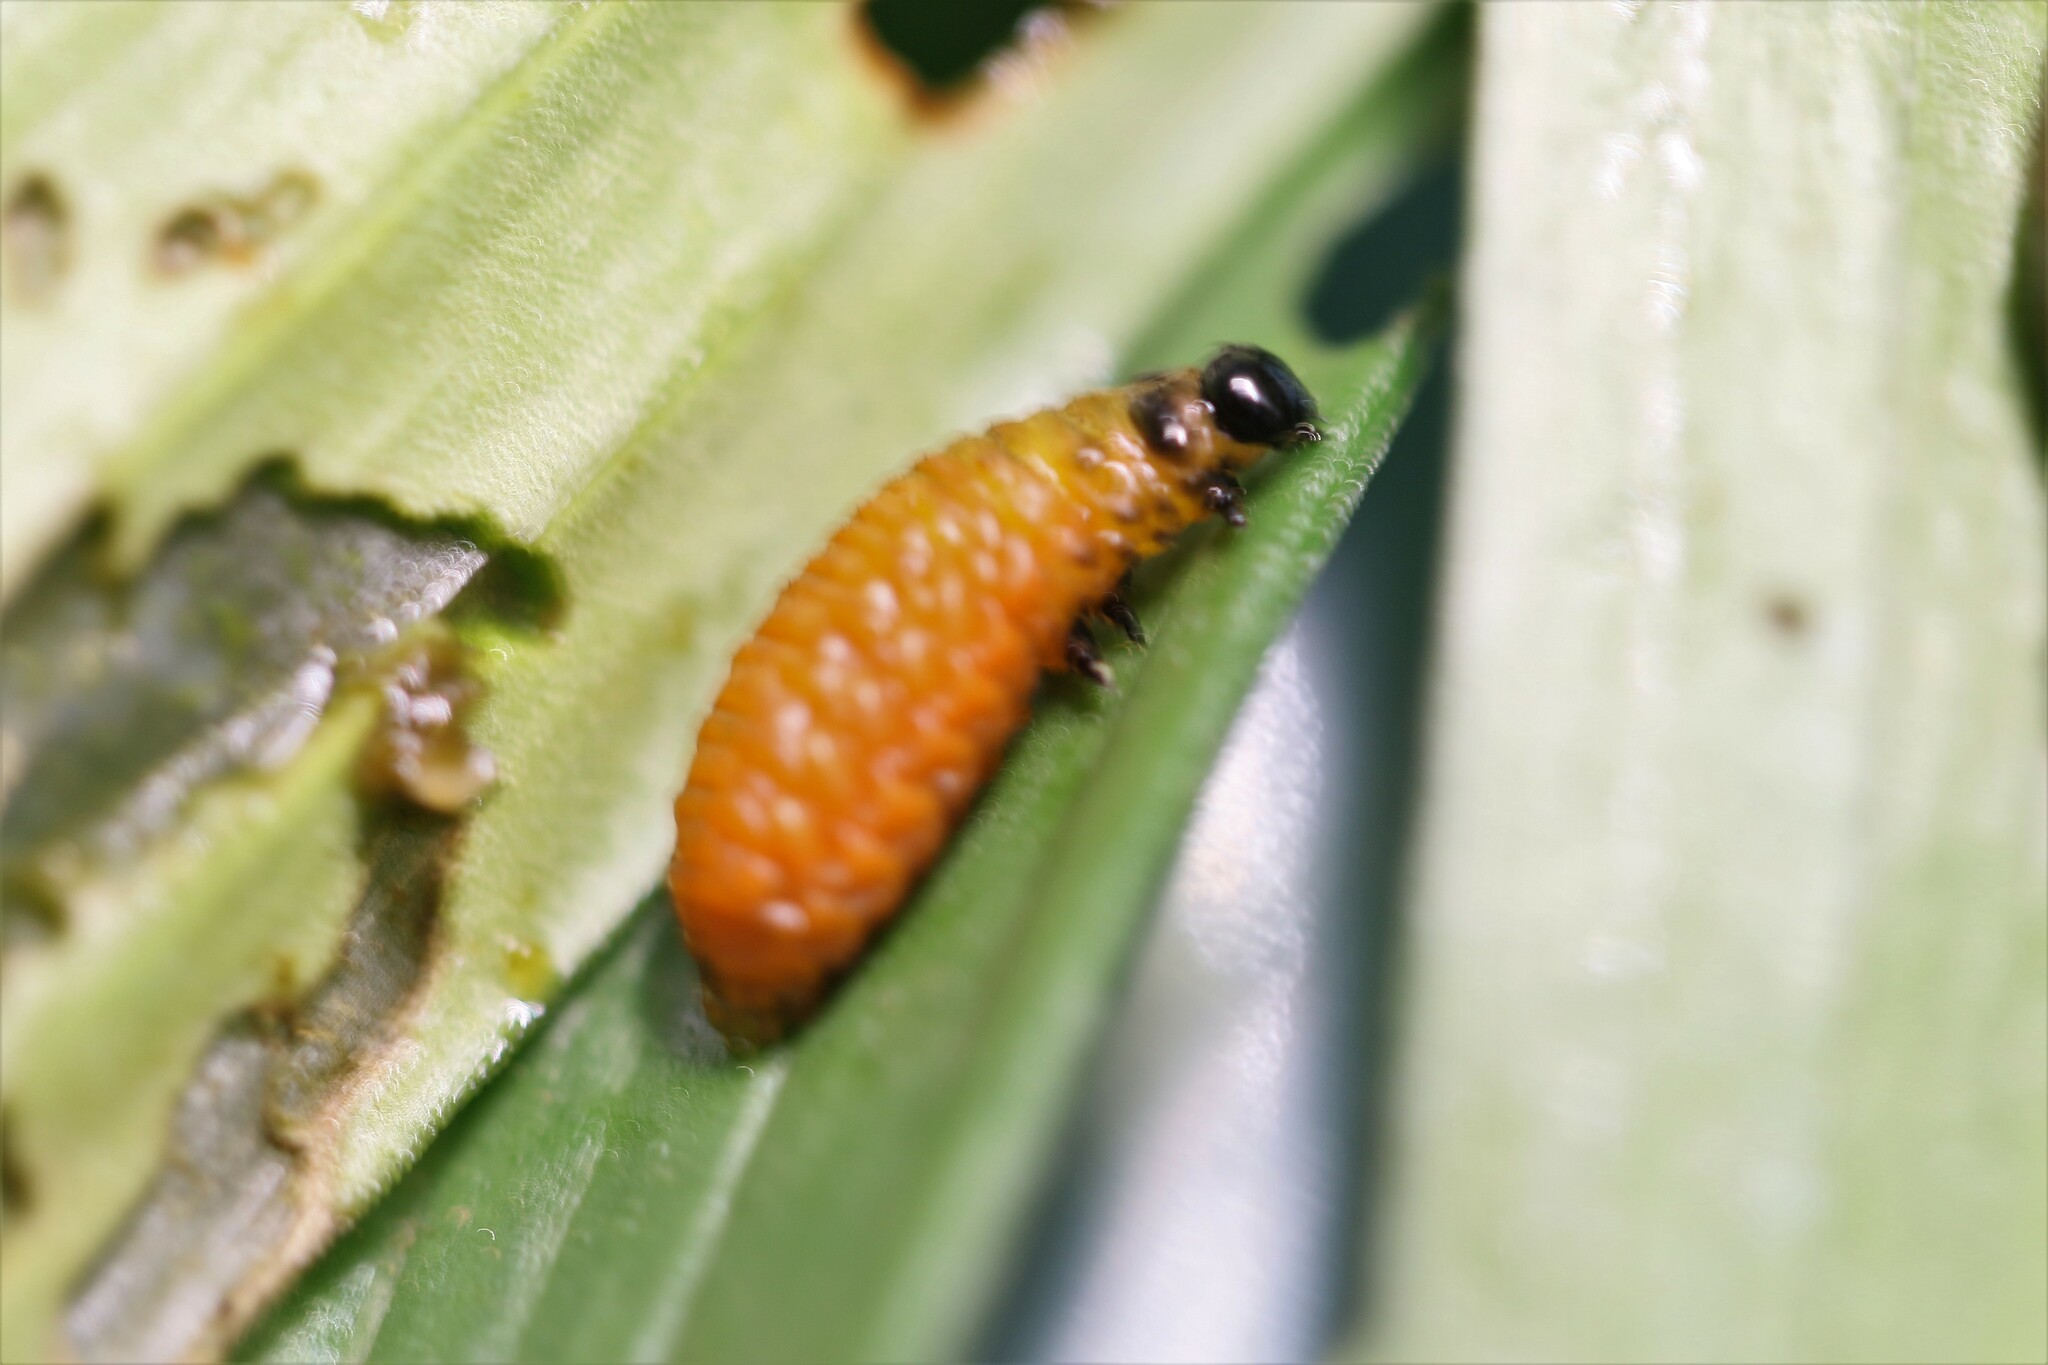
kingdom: Animalia
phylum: Arthropoda
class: Insecta
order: Coleoptera
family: Chrysomelidae
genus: Lilioceris
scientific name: Lilioceris lilii
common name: Lily beetle
